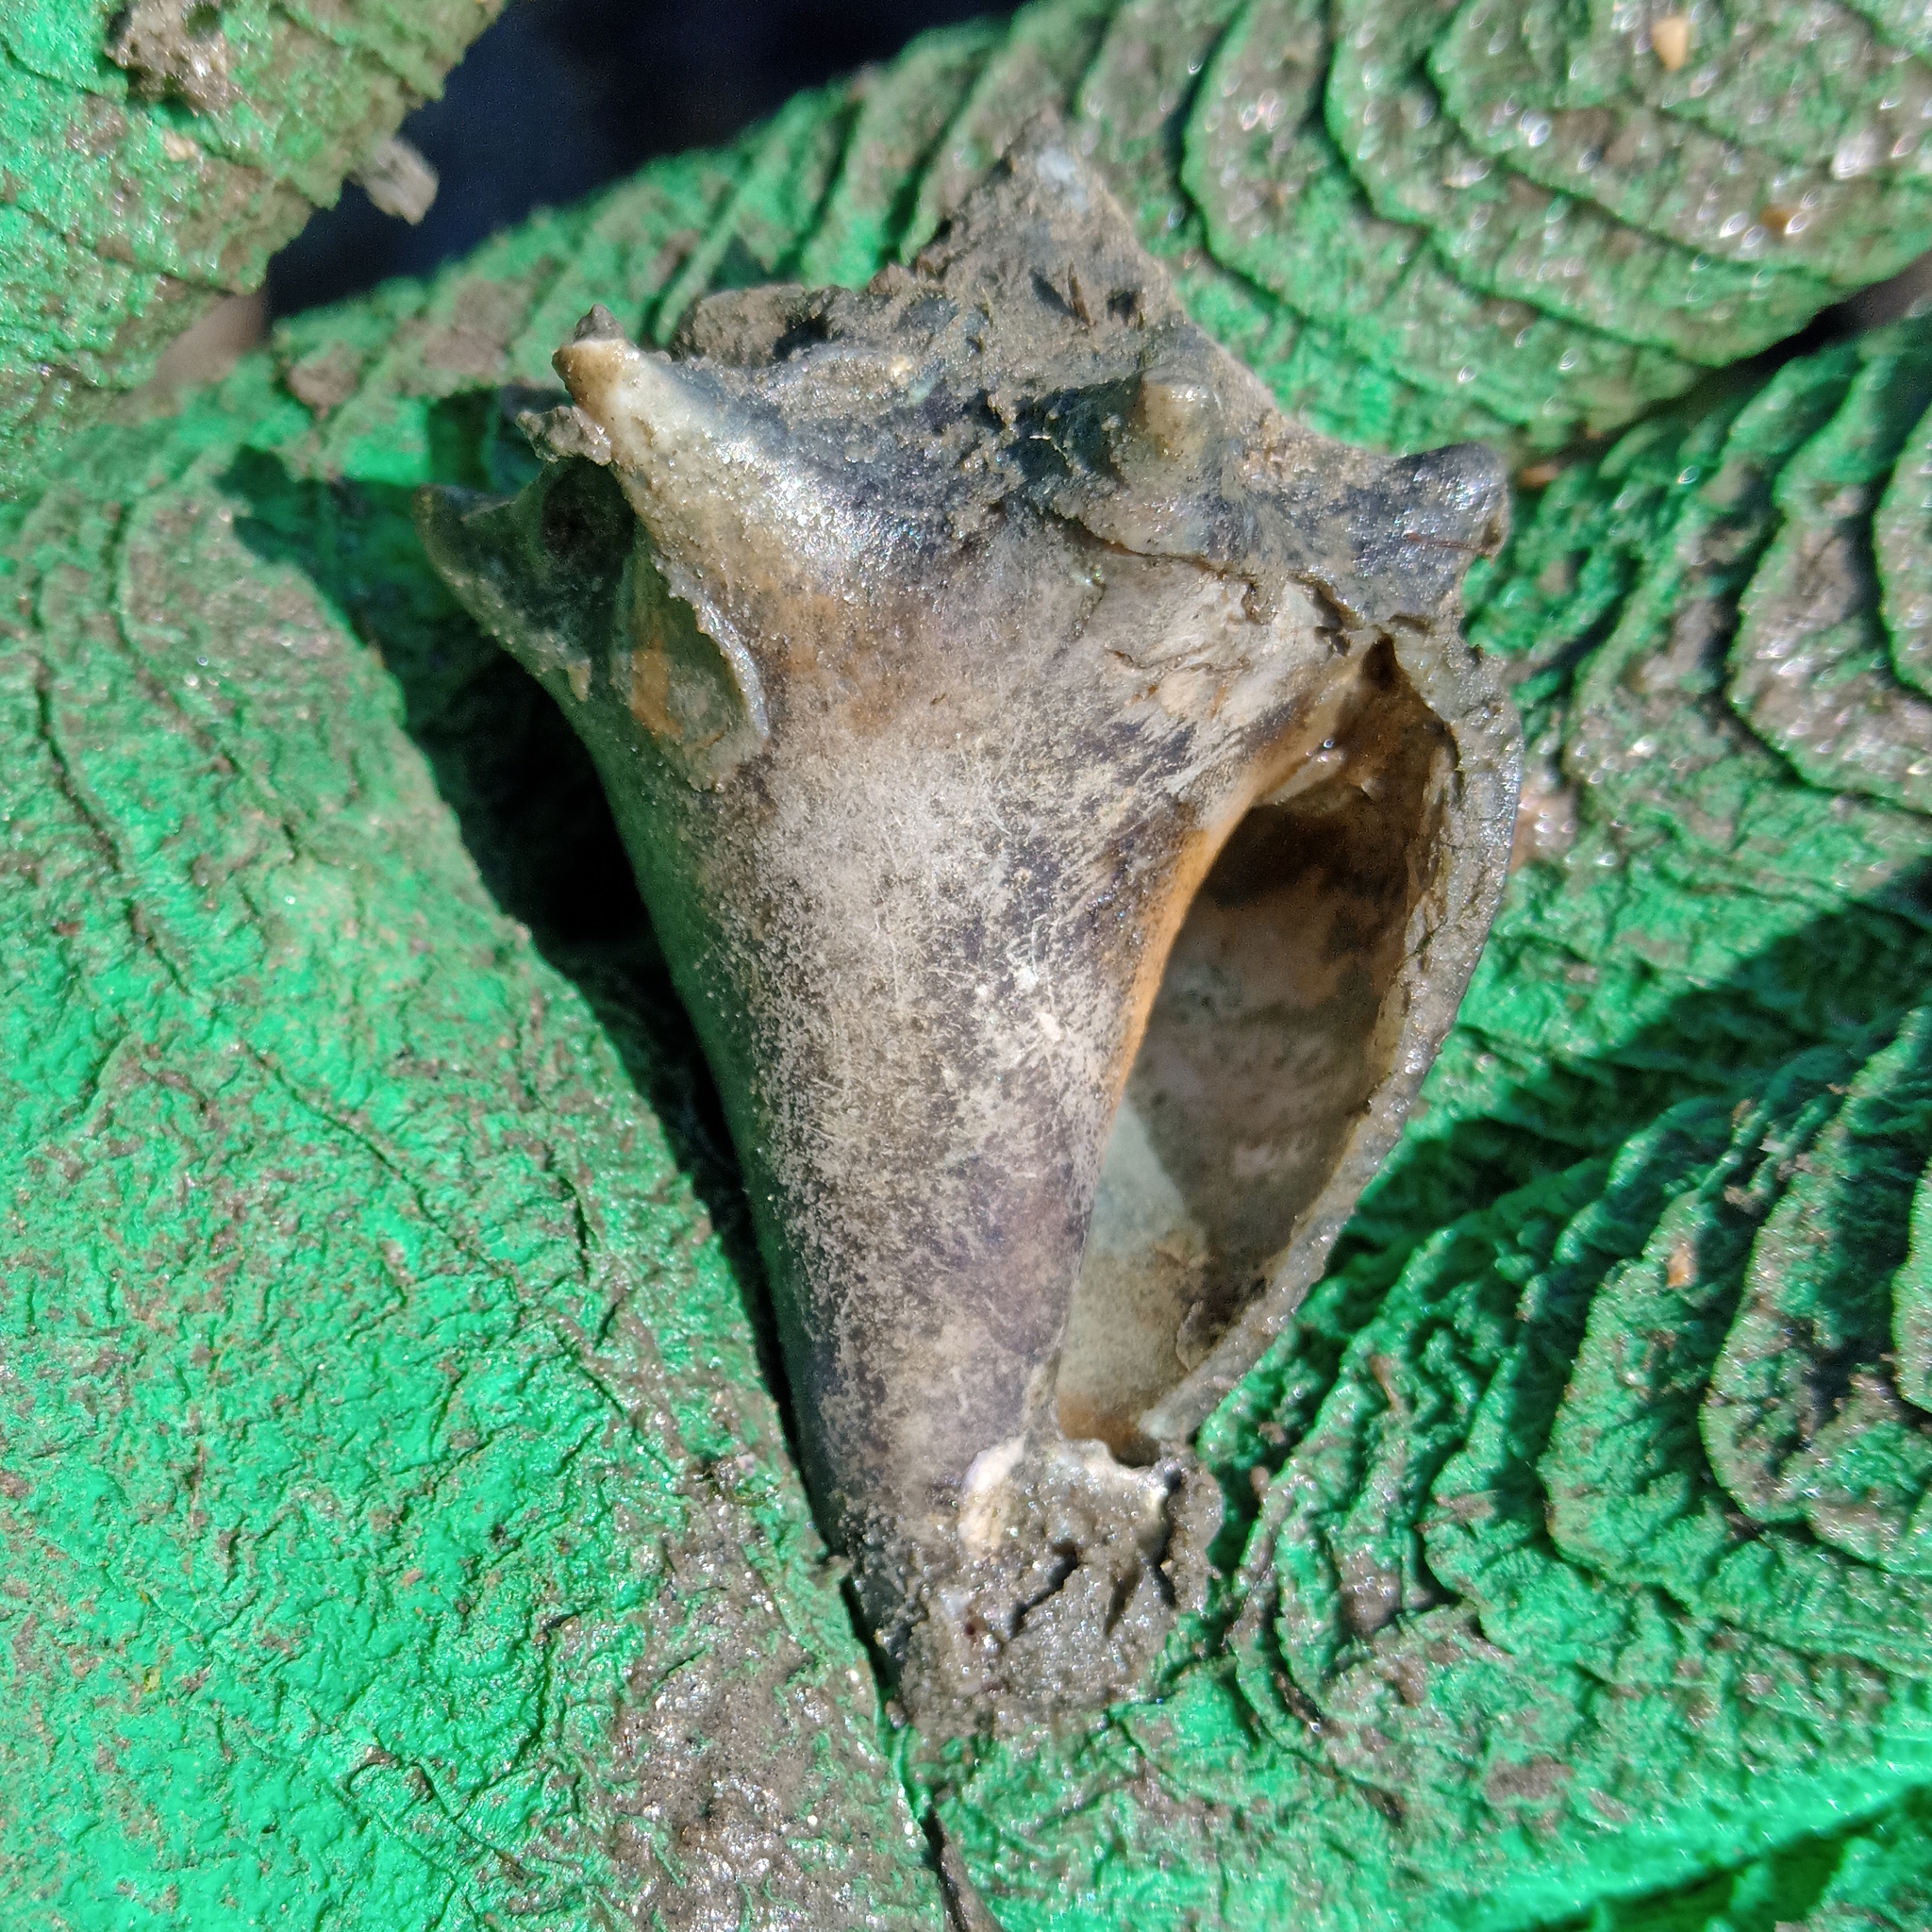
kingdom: Animalia
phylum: Mollusca
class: Gastropoda
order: Littorinimorpha
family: Strombidae
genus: Strombus
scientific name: Strombus pugilis
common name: West indian fighting conch
